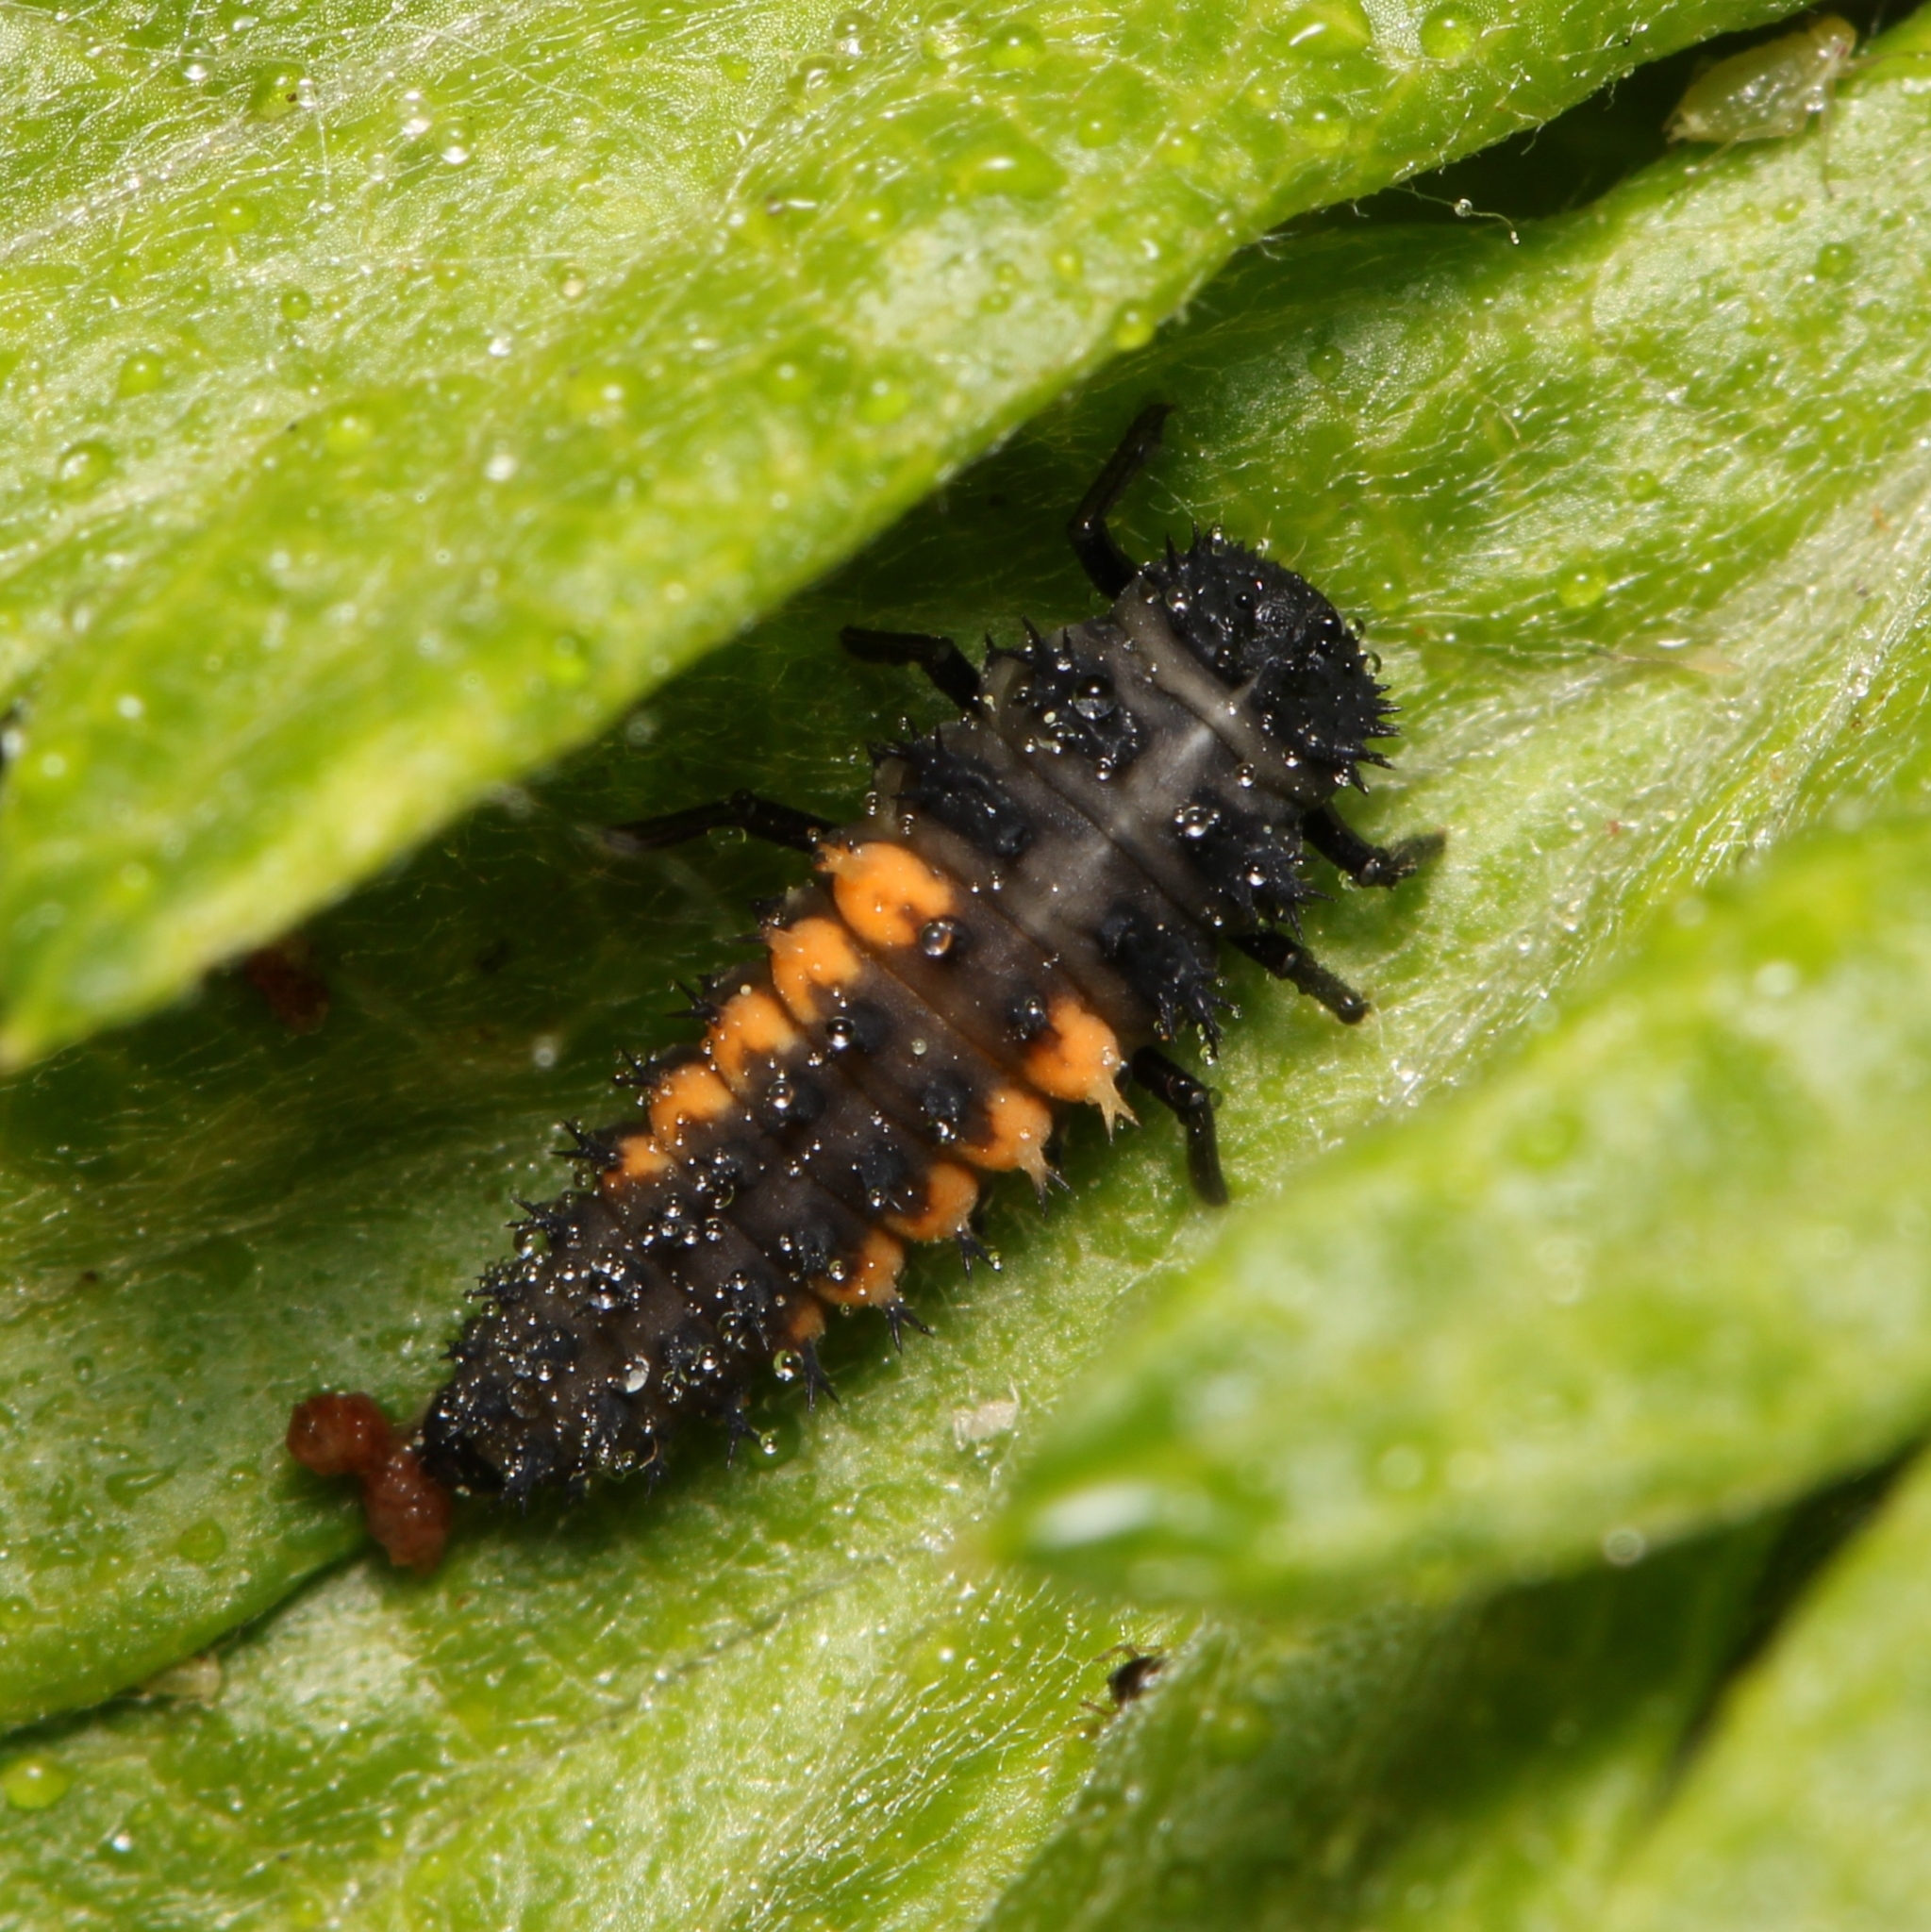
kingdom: Animalia
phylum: Arthropoda
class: Insecta
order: Coleoptera
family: Coccinellidae
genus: Harmonia
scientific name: Harmonia axyridis
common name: Harlequin ladybird
